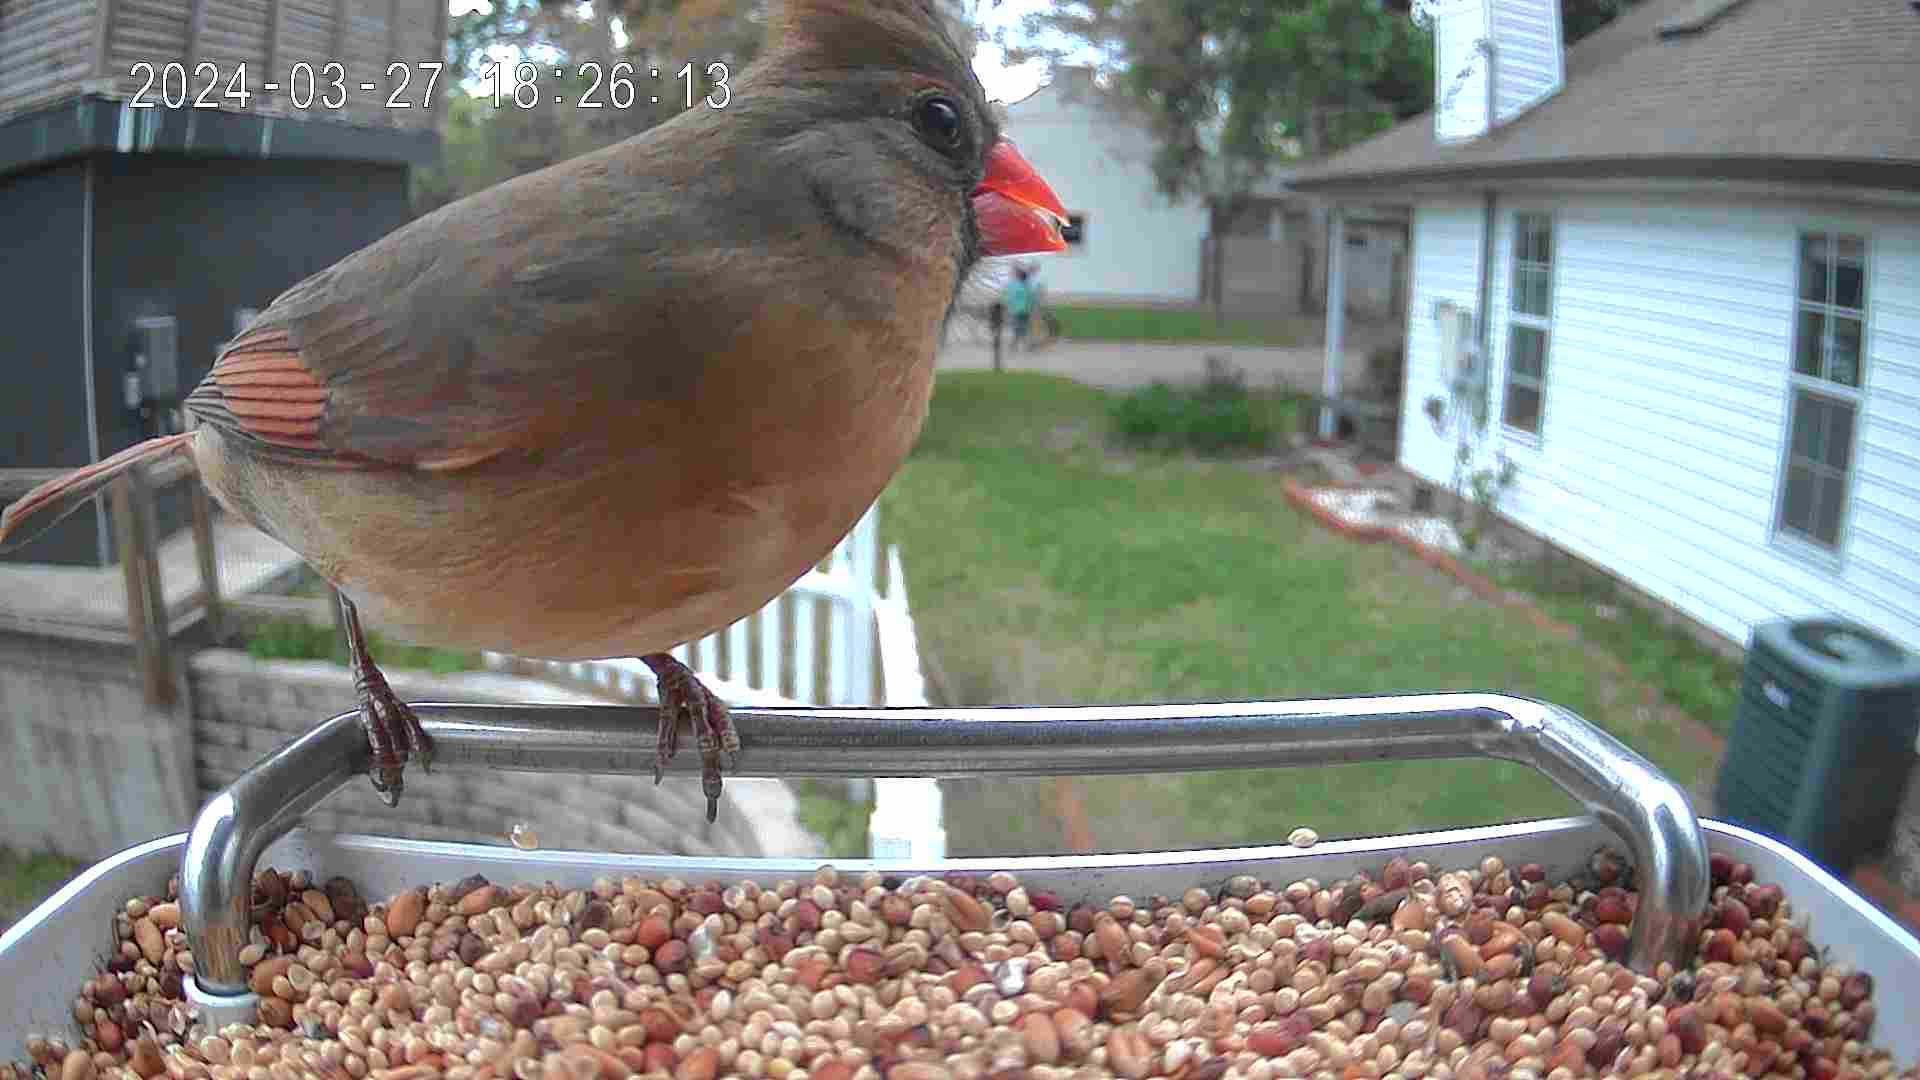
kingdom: Animalia
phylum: Chordata
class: Aves
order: Passeriformes
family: Cardinalidae
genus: Cardinalis
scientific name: Cardinalis cardinalis
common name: Northern cardinal
